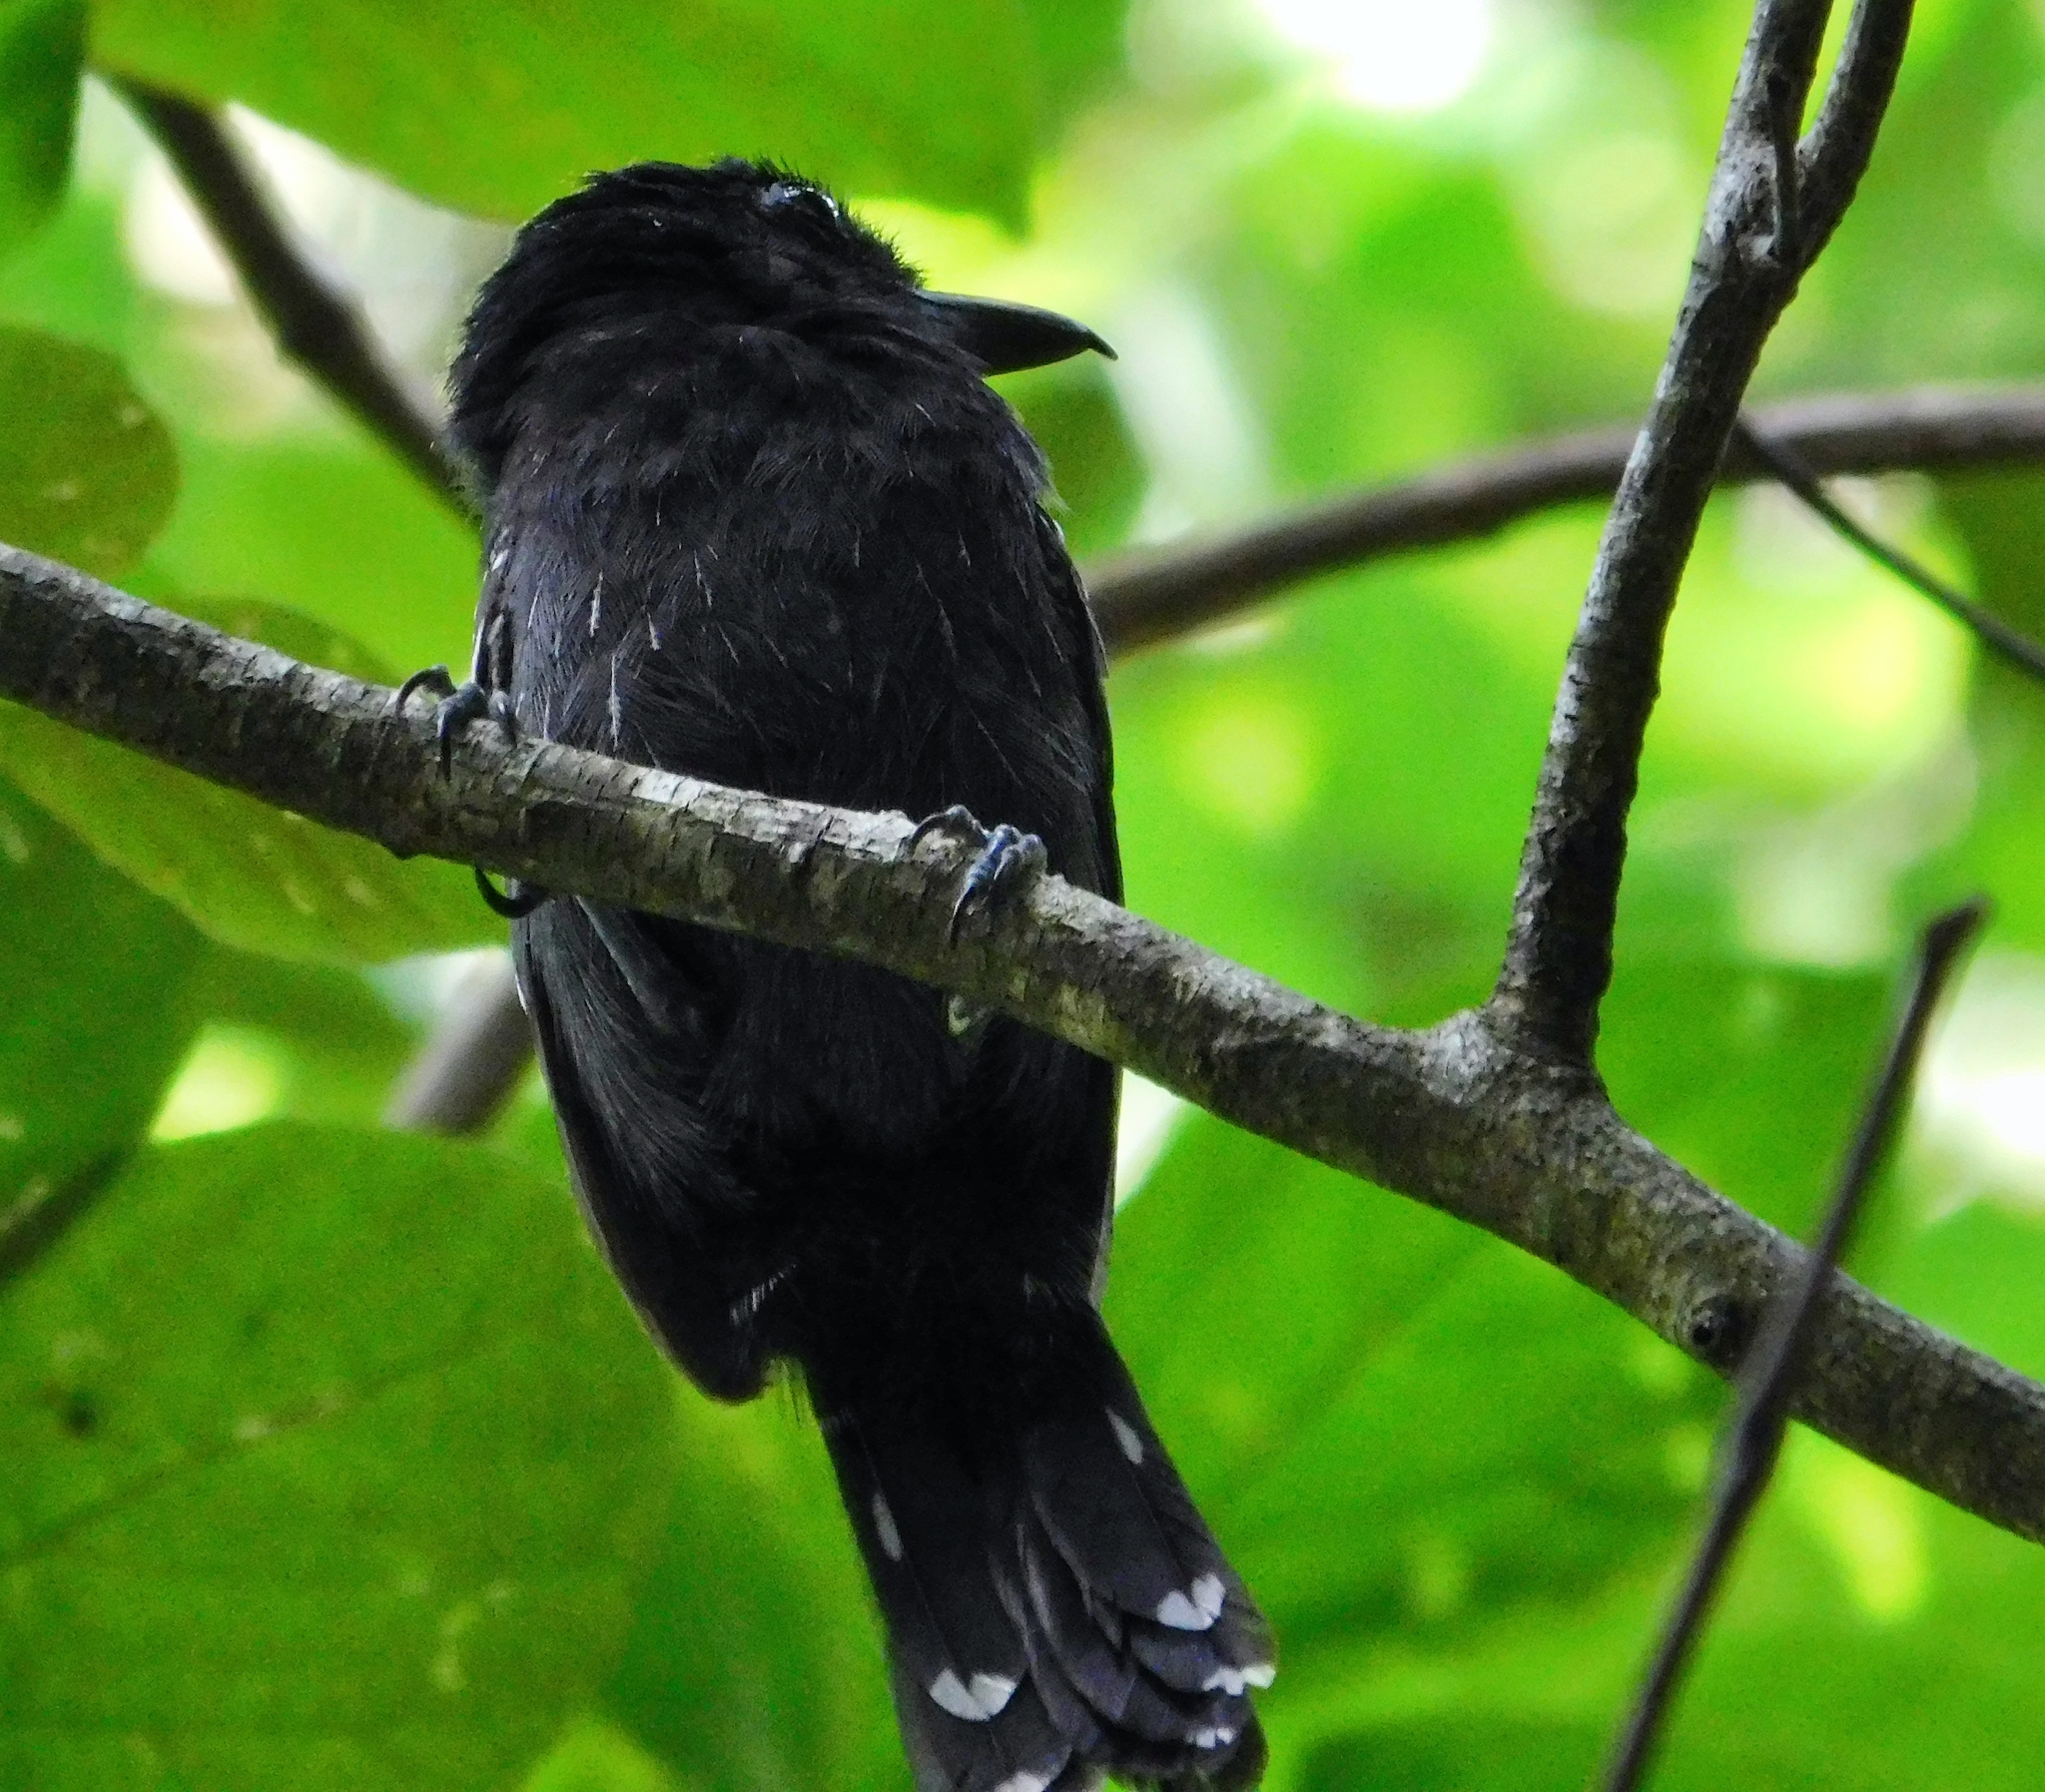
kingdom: Animalia
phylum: Chordata
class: Aves
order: Passeriformes
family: Thamnophilidae
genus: Thamnophilus
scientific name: Thamnophilus bridgesi
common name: Black-hooded antshrike
